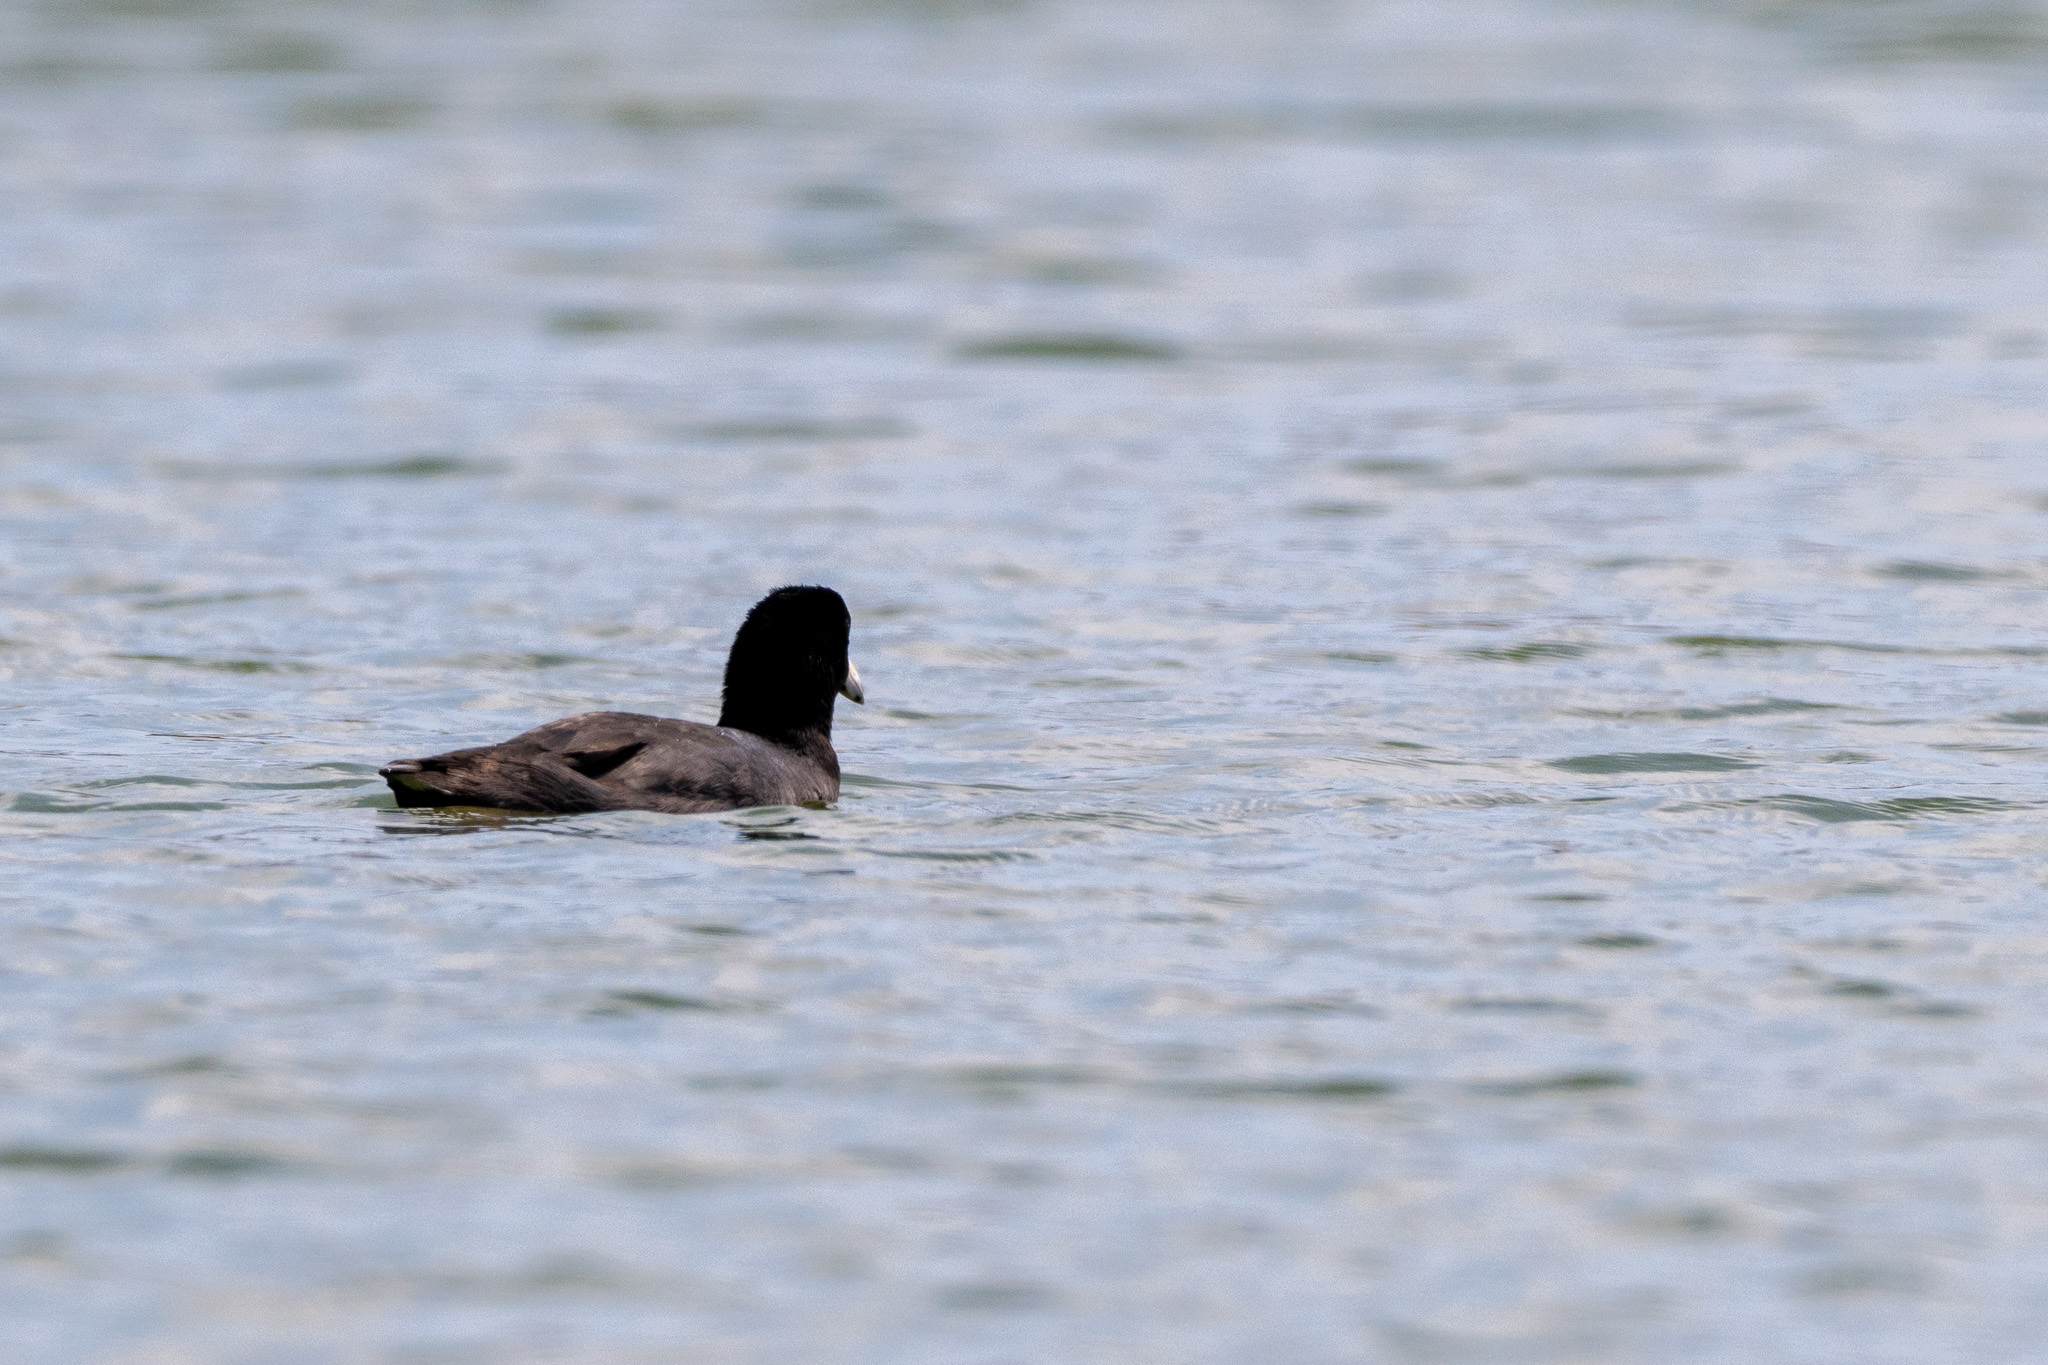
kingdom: Animalia
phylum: Chordata
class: Aves
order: Gruiformes
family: Rallidae
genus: Fulica
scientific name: Fulica americana
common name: American coot
